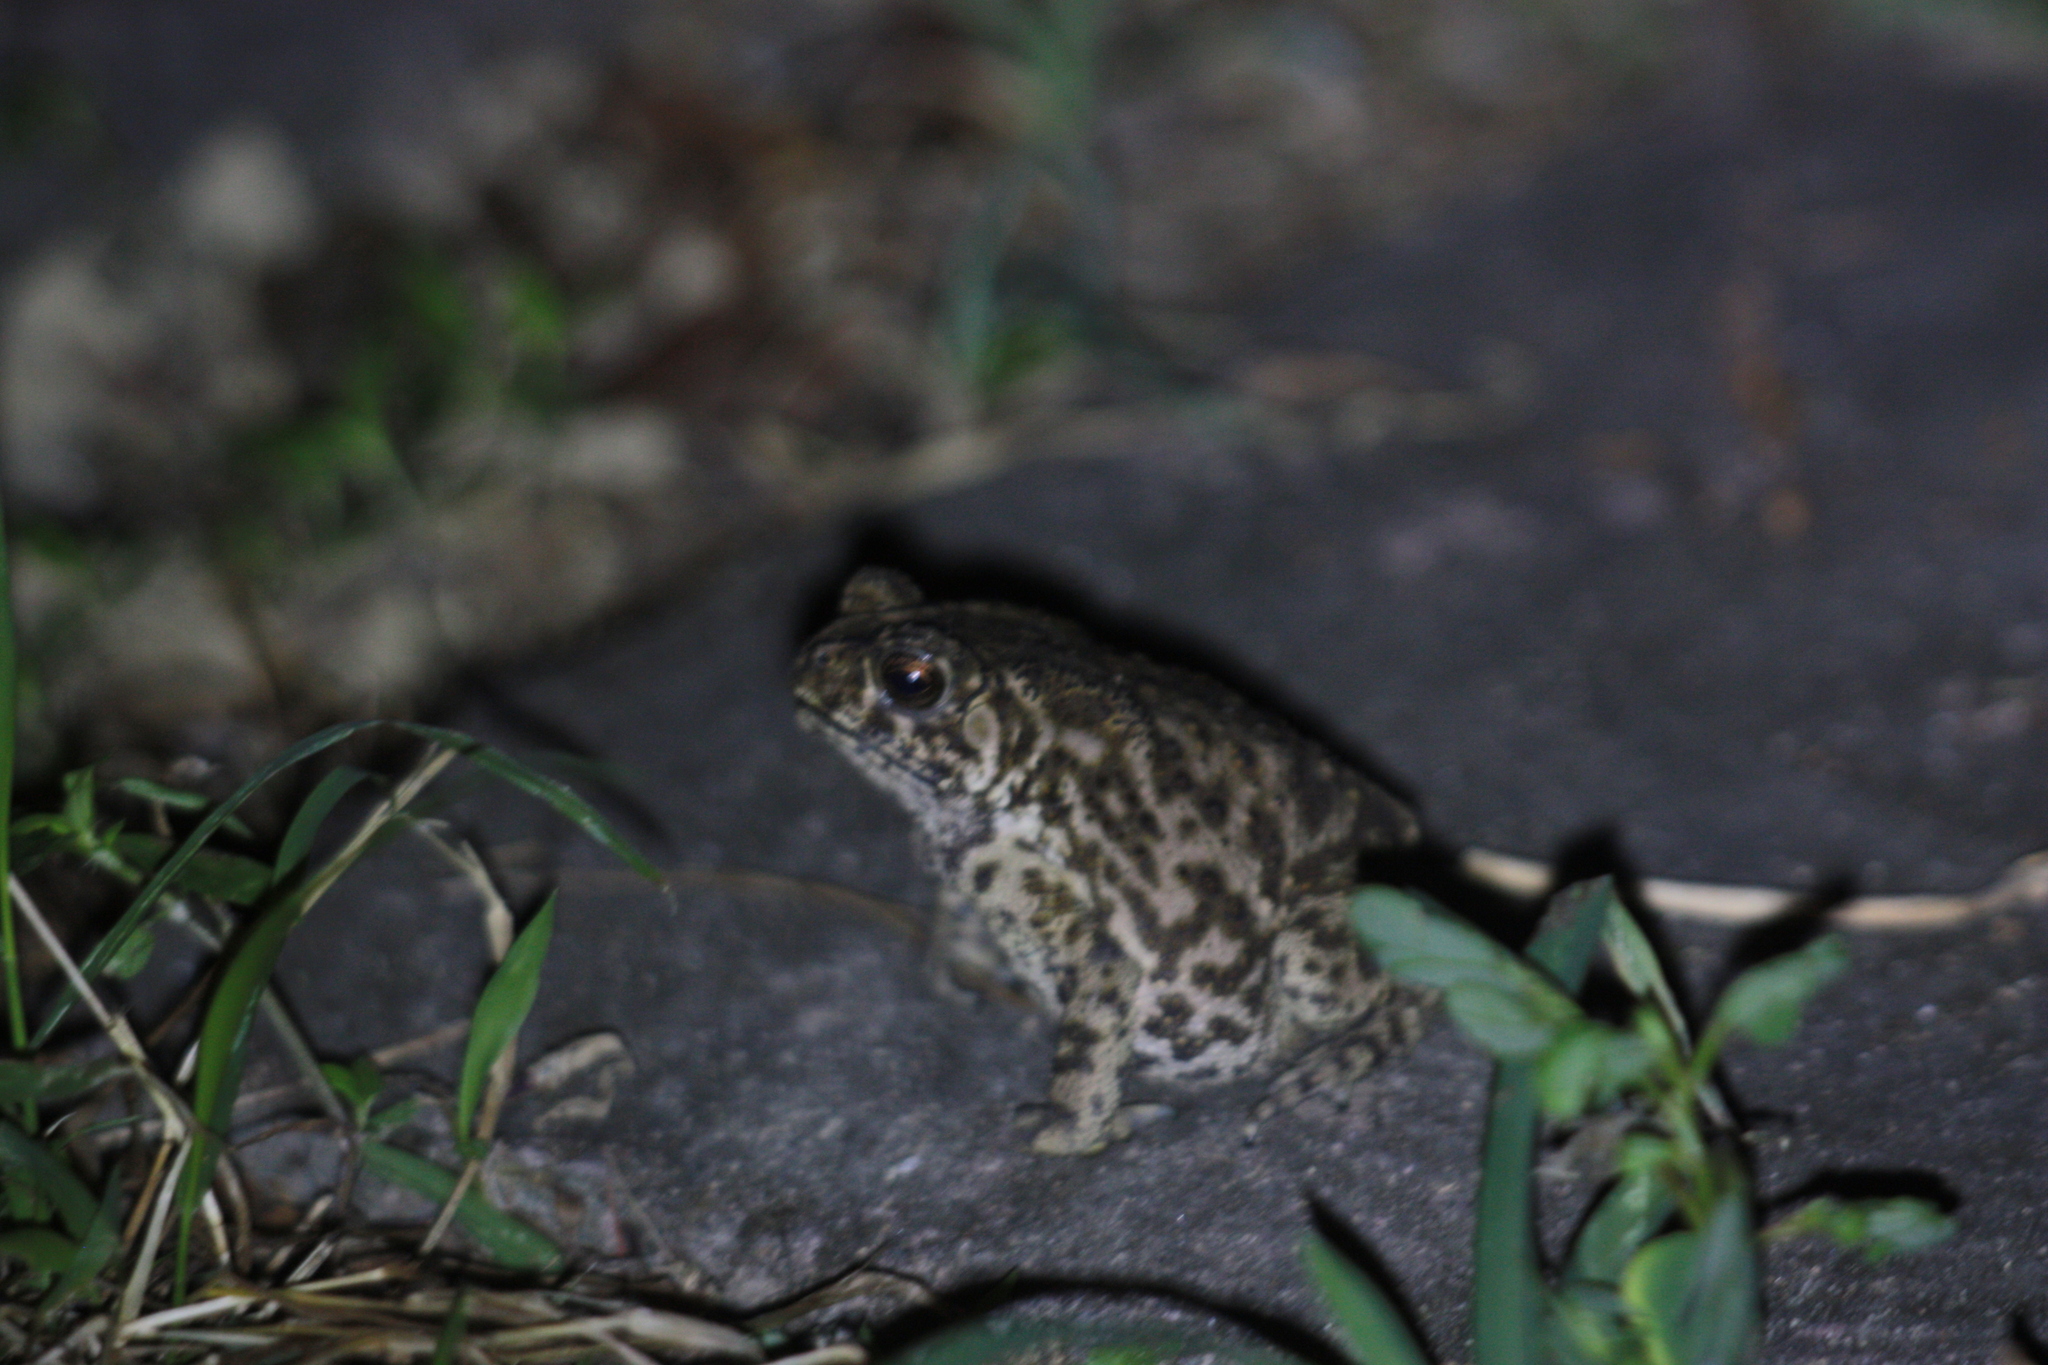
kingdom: Animalia
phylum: Chordata
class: Amphibia
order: Anura
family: Bufonidae
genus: Duttaphrynus
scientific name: Duttaphrynus melanostictus
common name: Common sunda toad
